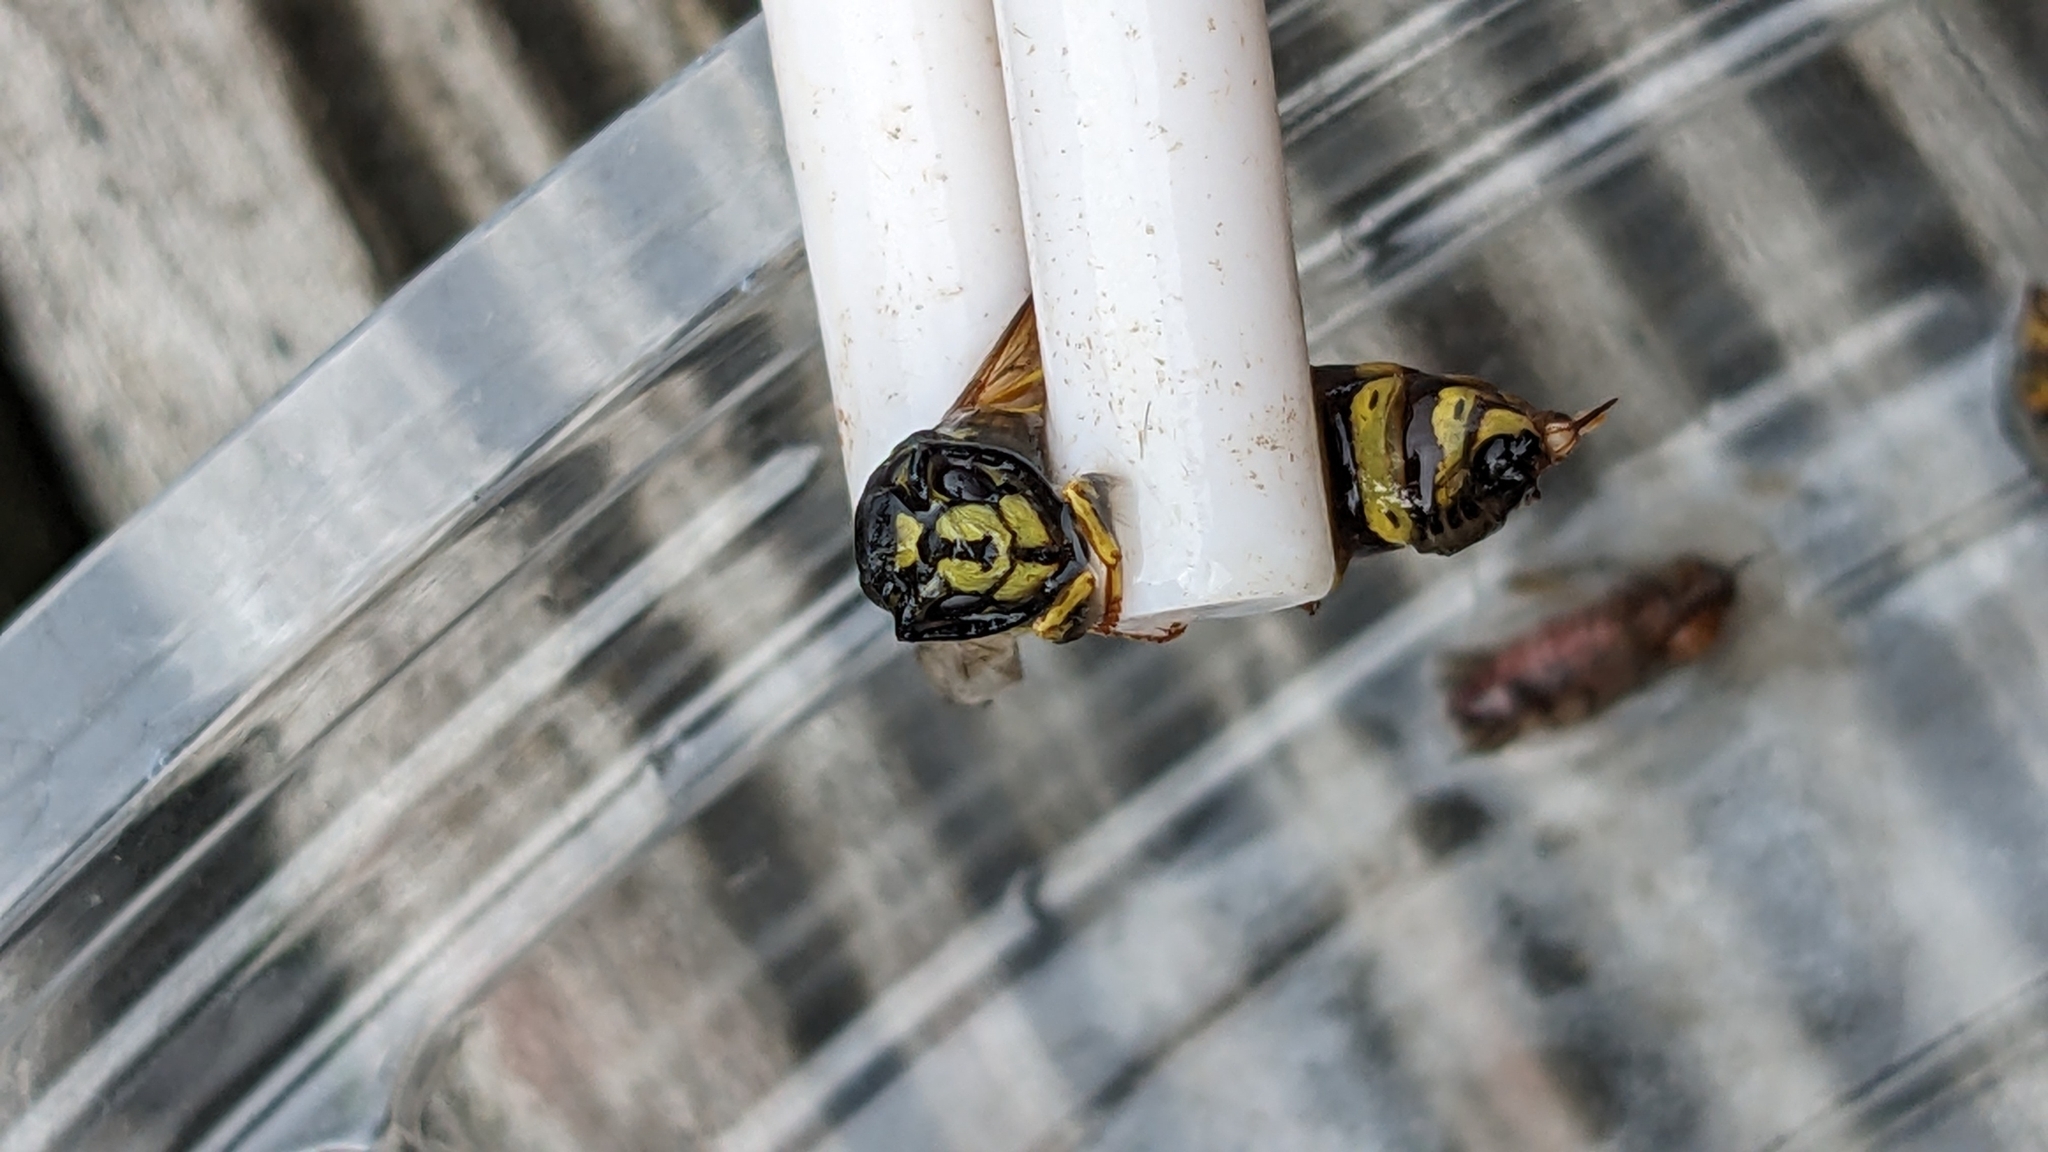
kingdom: Animalia
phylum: Arthropoda
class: Insecta
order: Hymenoptera
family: Vespidae
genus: Vespula
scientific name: Vespula vulgaris
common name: Common wasp
